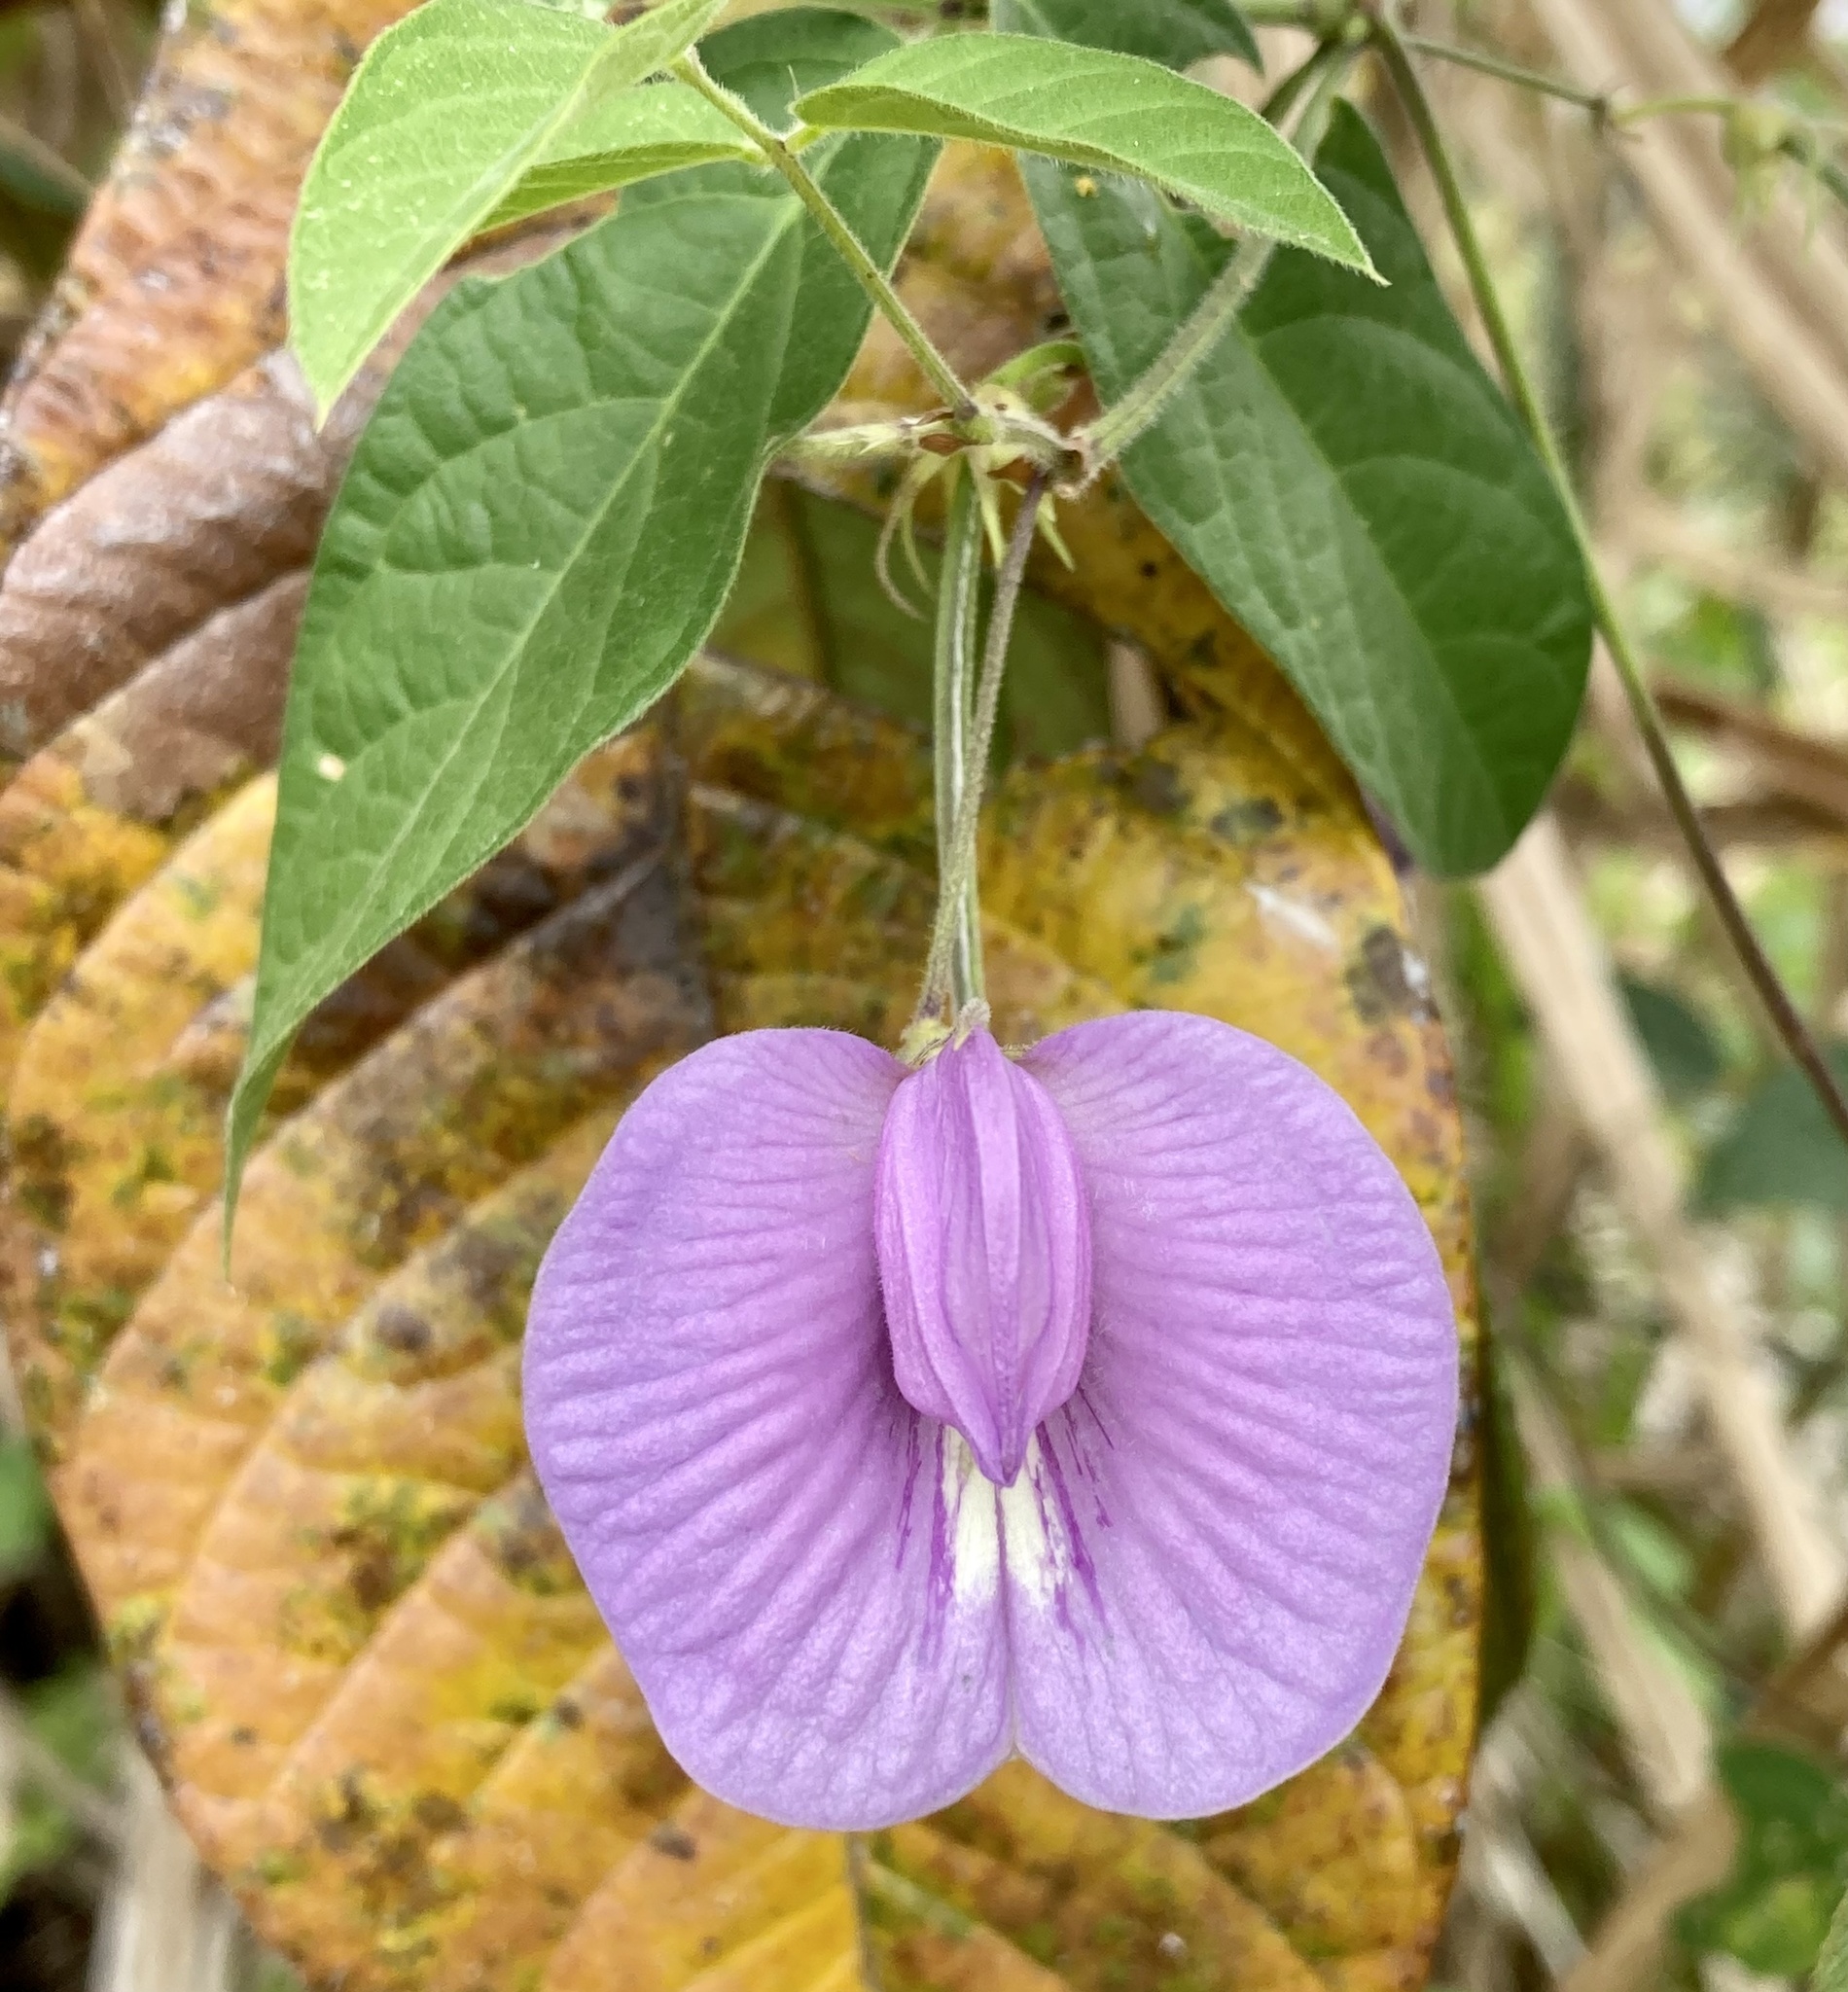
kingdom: Plantae
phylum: Tracheophyta
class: Magnoliopsida
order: Fabales
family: Fabaceae
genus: Centrosema
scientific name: Centrosema virginianum
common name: Butterfly-pea
